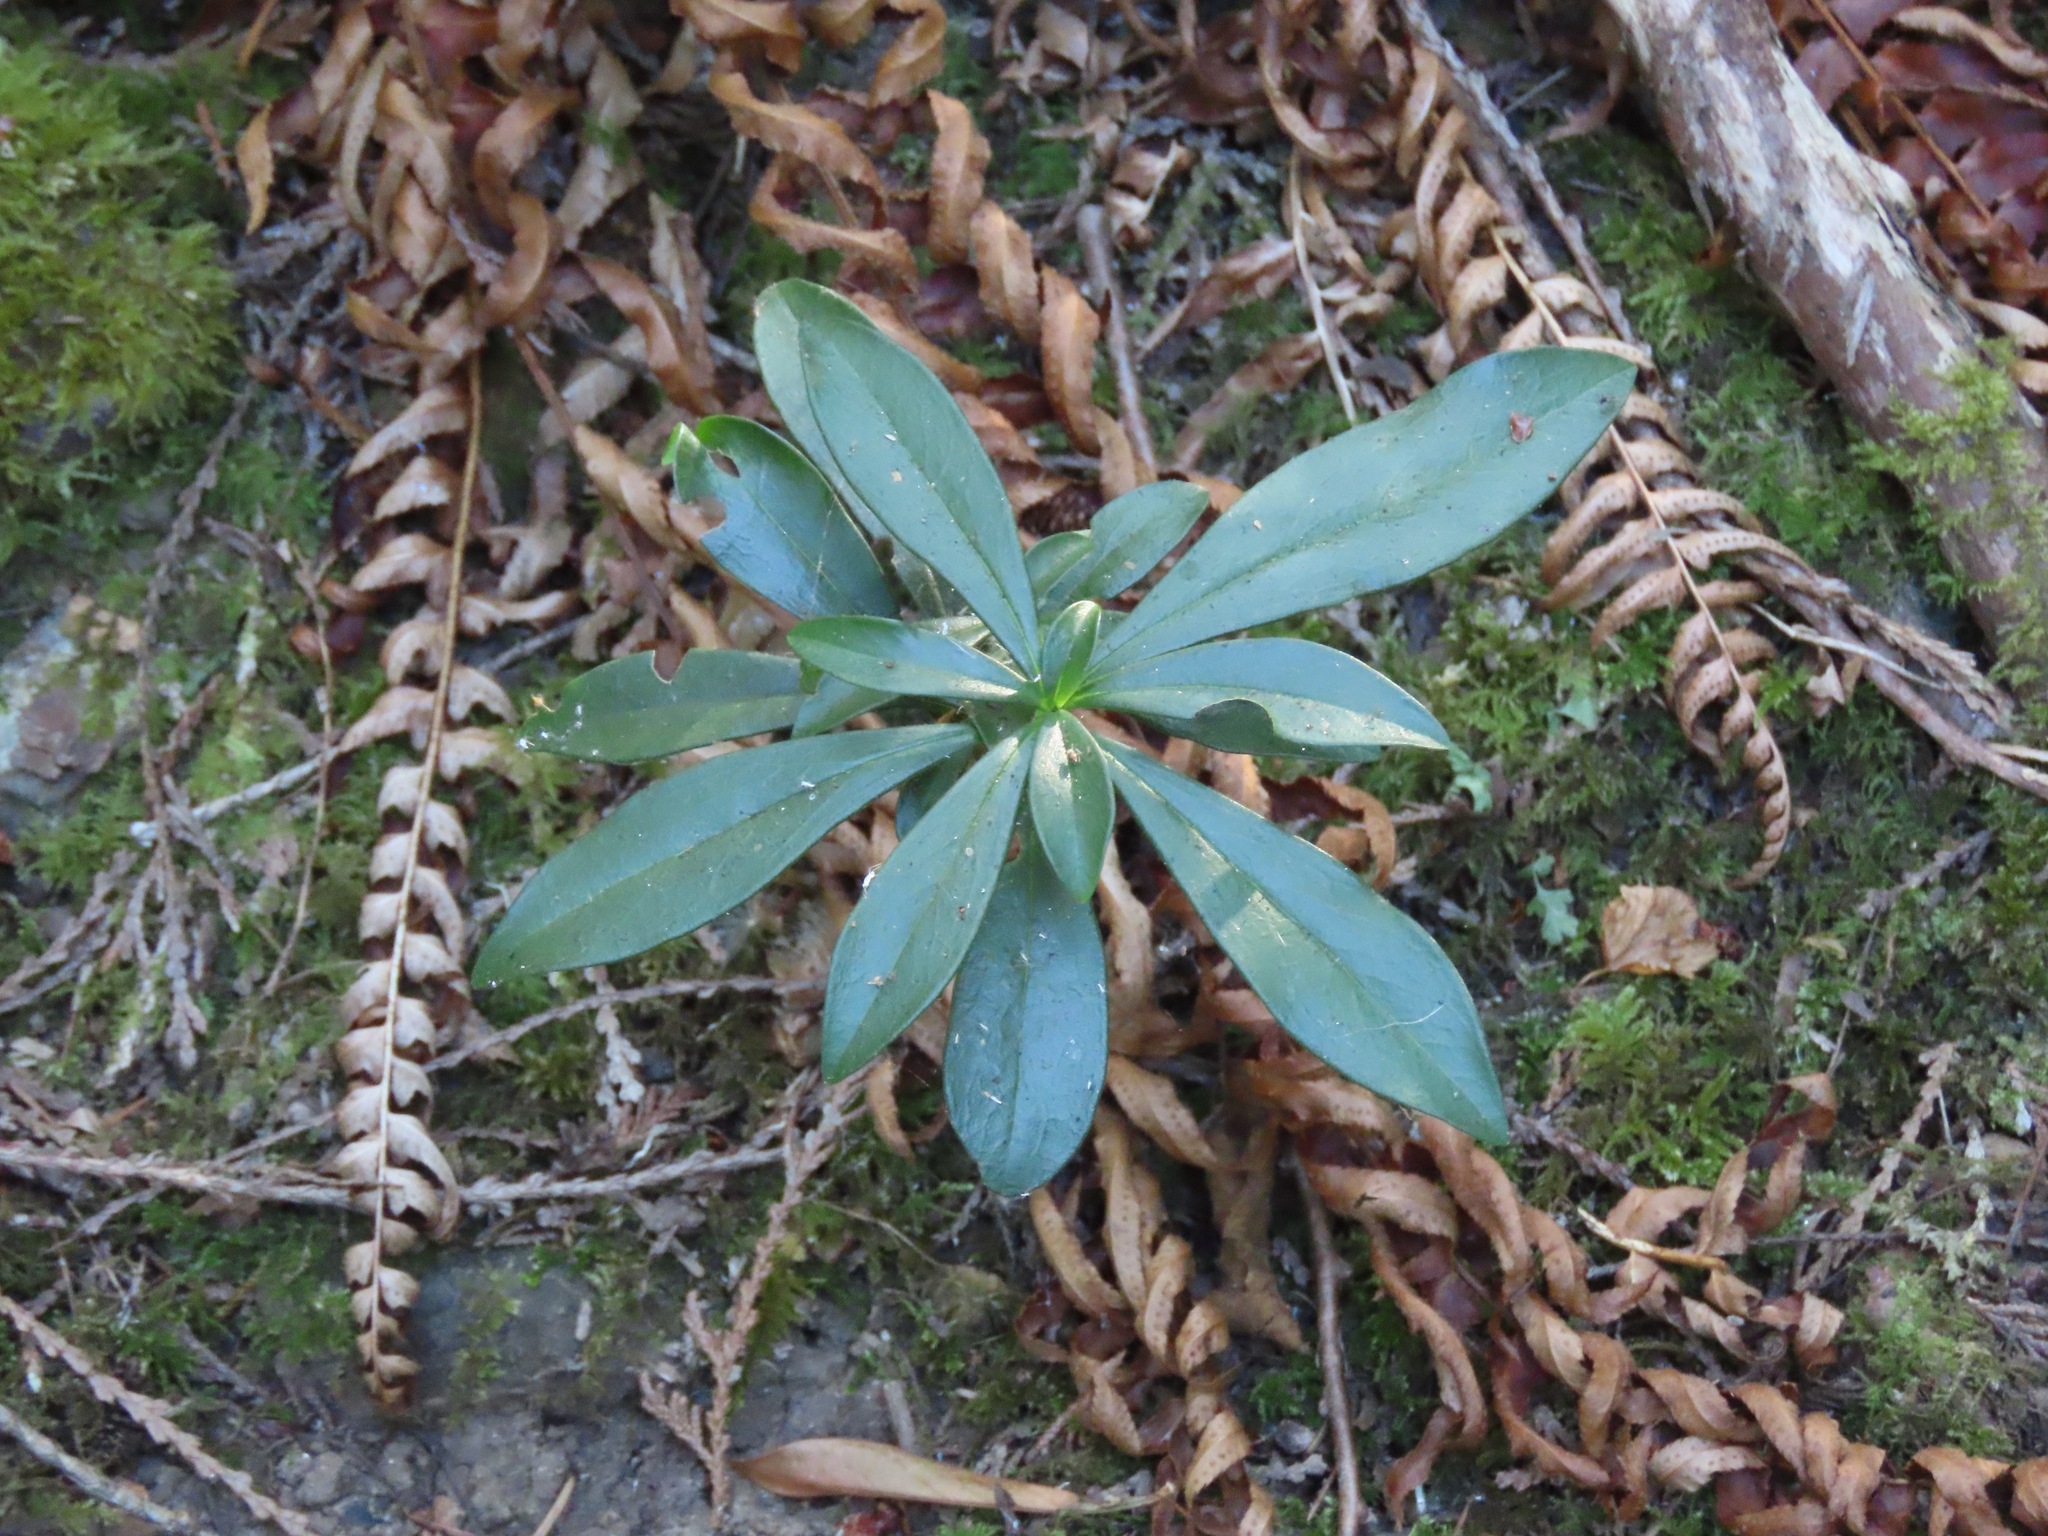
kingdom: Plantae
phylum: Tracheophyta
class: Magnoliopsida
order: Malvales
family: Thymelaeaceae
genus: Daphne
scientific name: Daphne laureola
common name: Spurge-laurel
